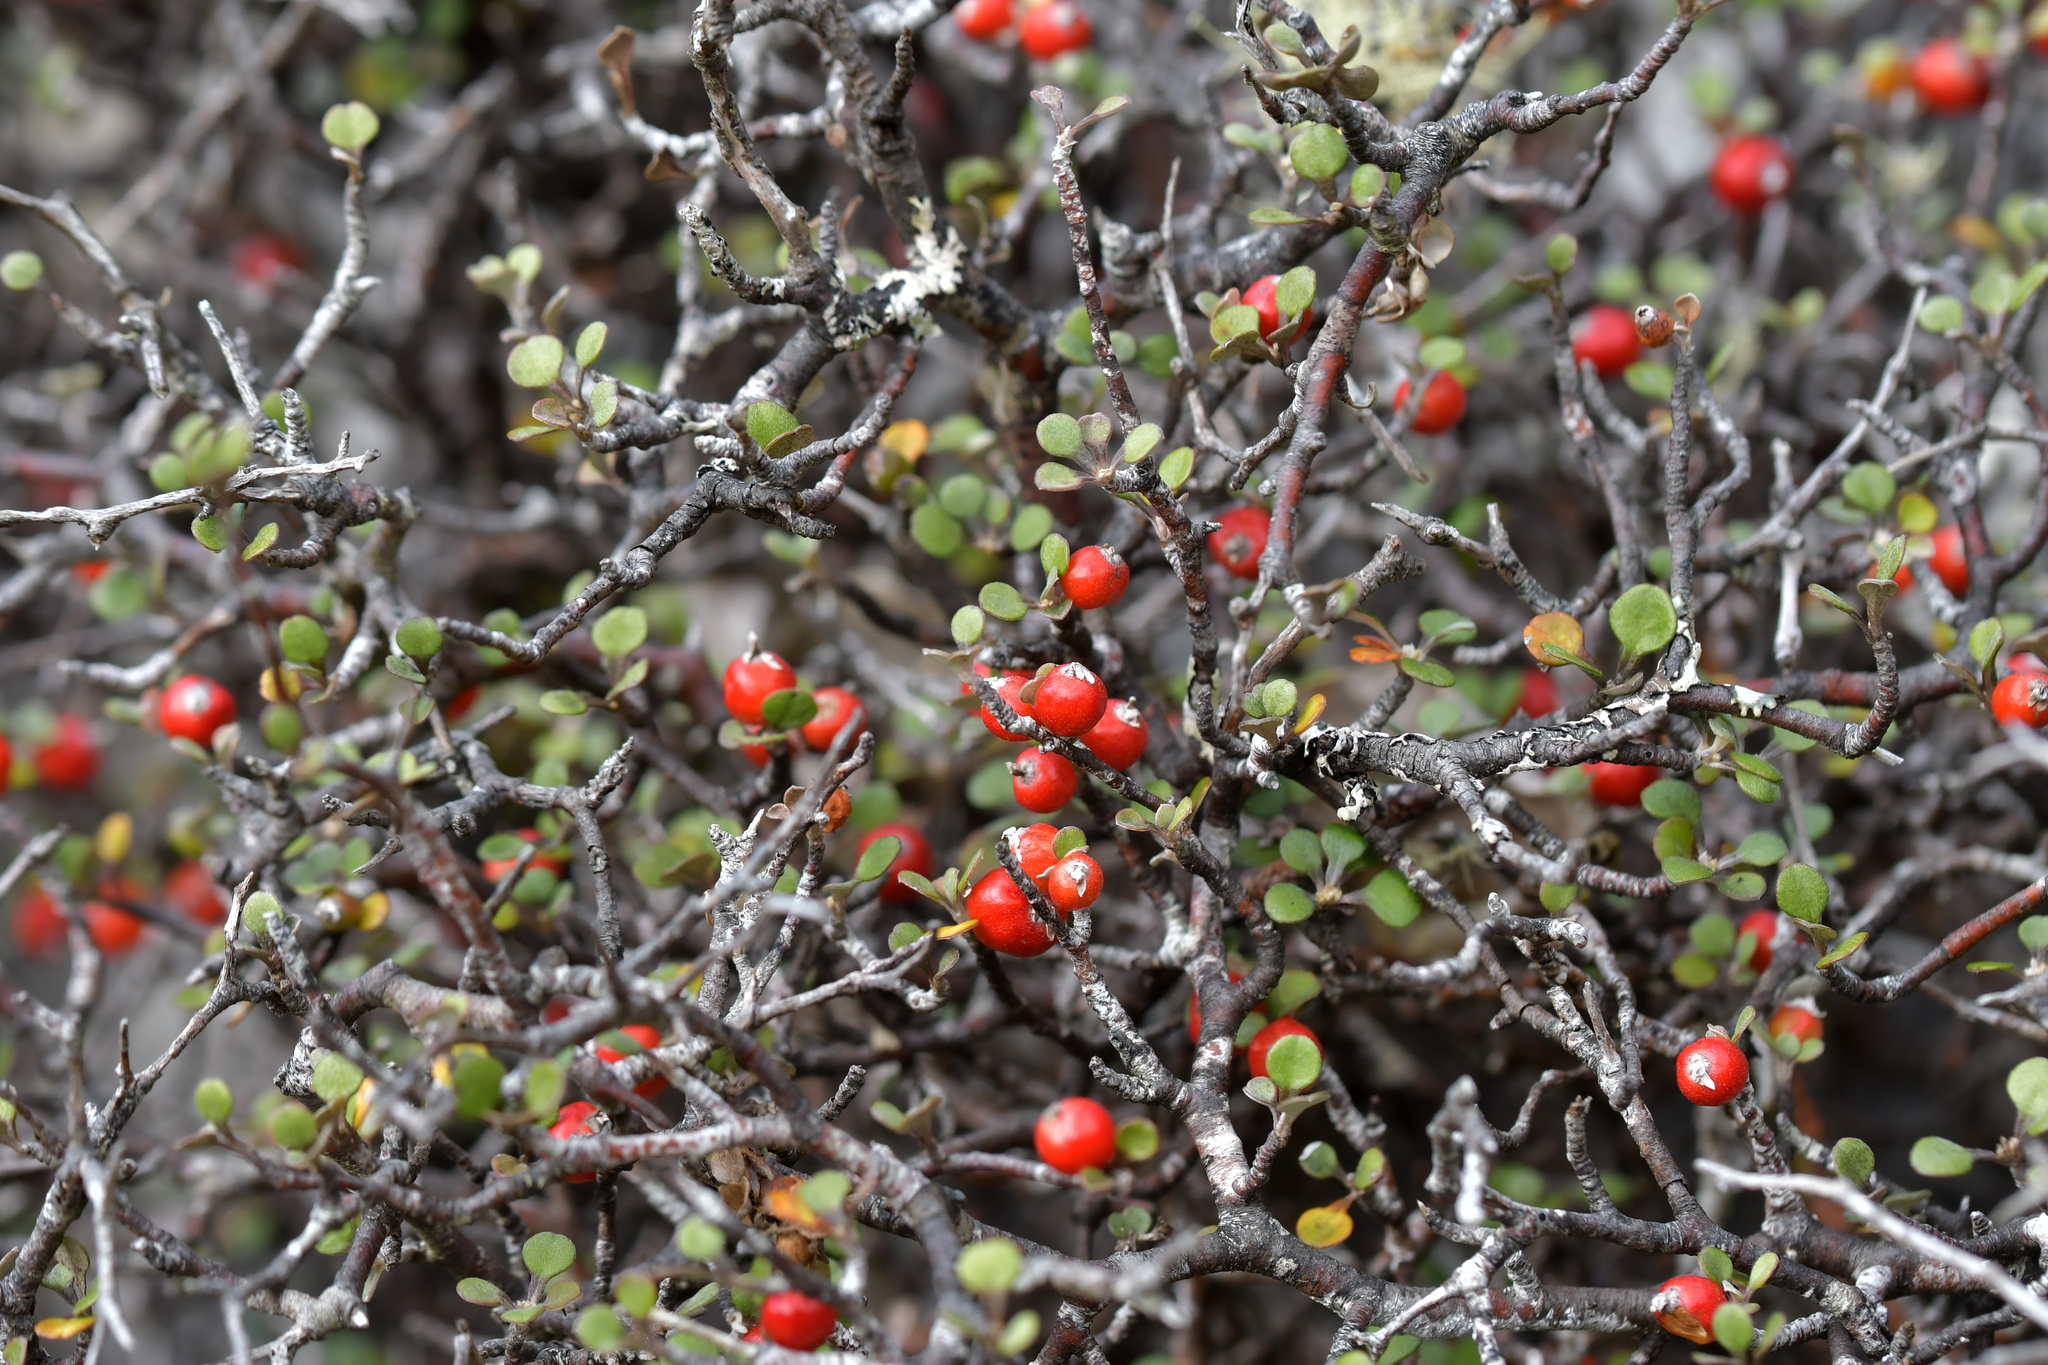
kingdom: Plantae
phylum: Tracheophyta
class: Magnoliopsida
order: Asterales
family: Argophyllaceae
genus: Corokia
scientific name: Corokia cotoneaster
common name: Wire nettingbush
